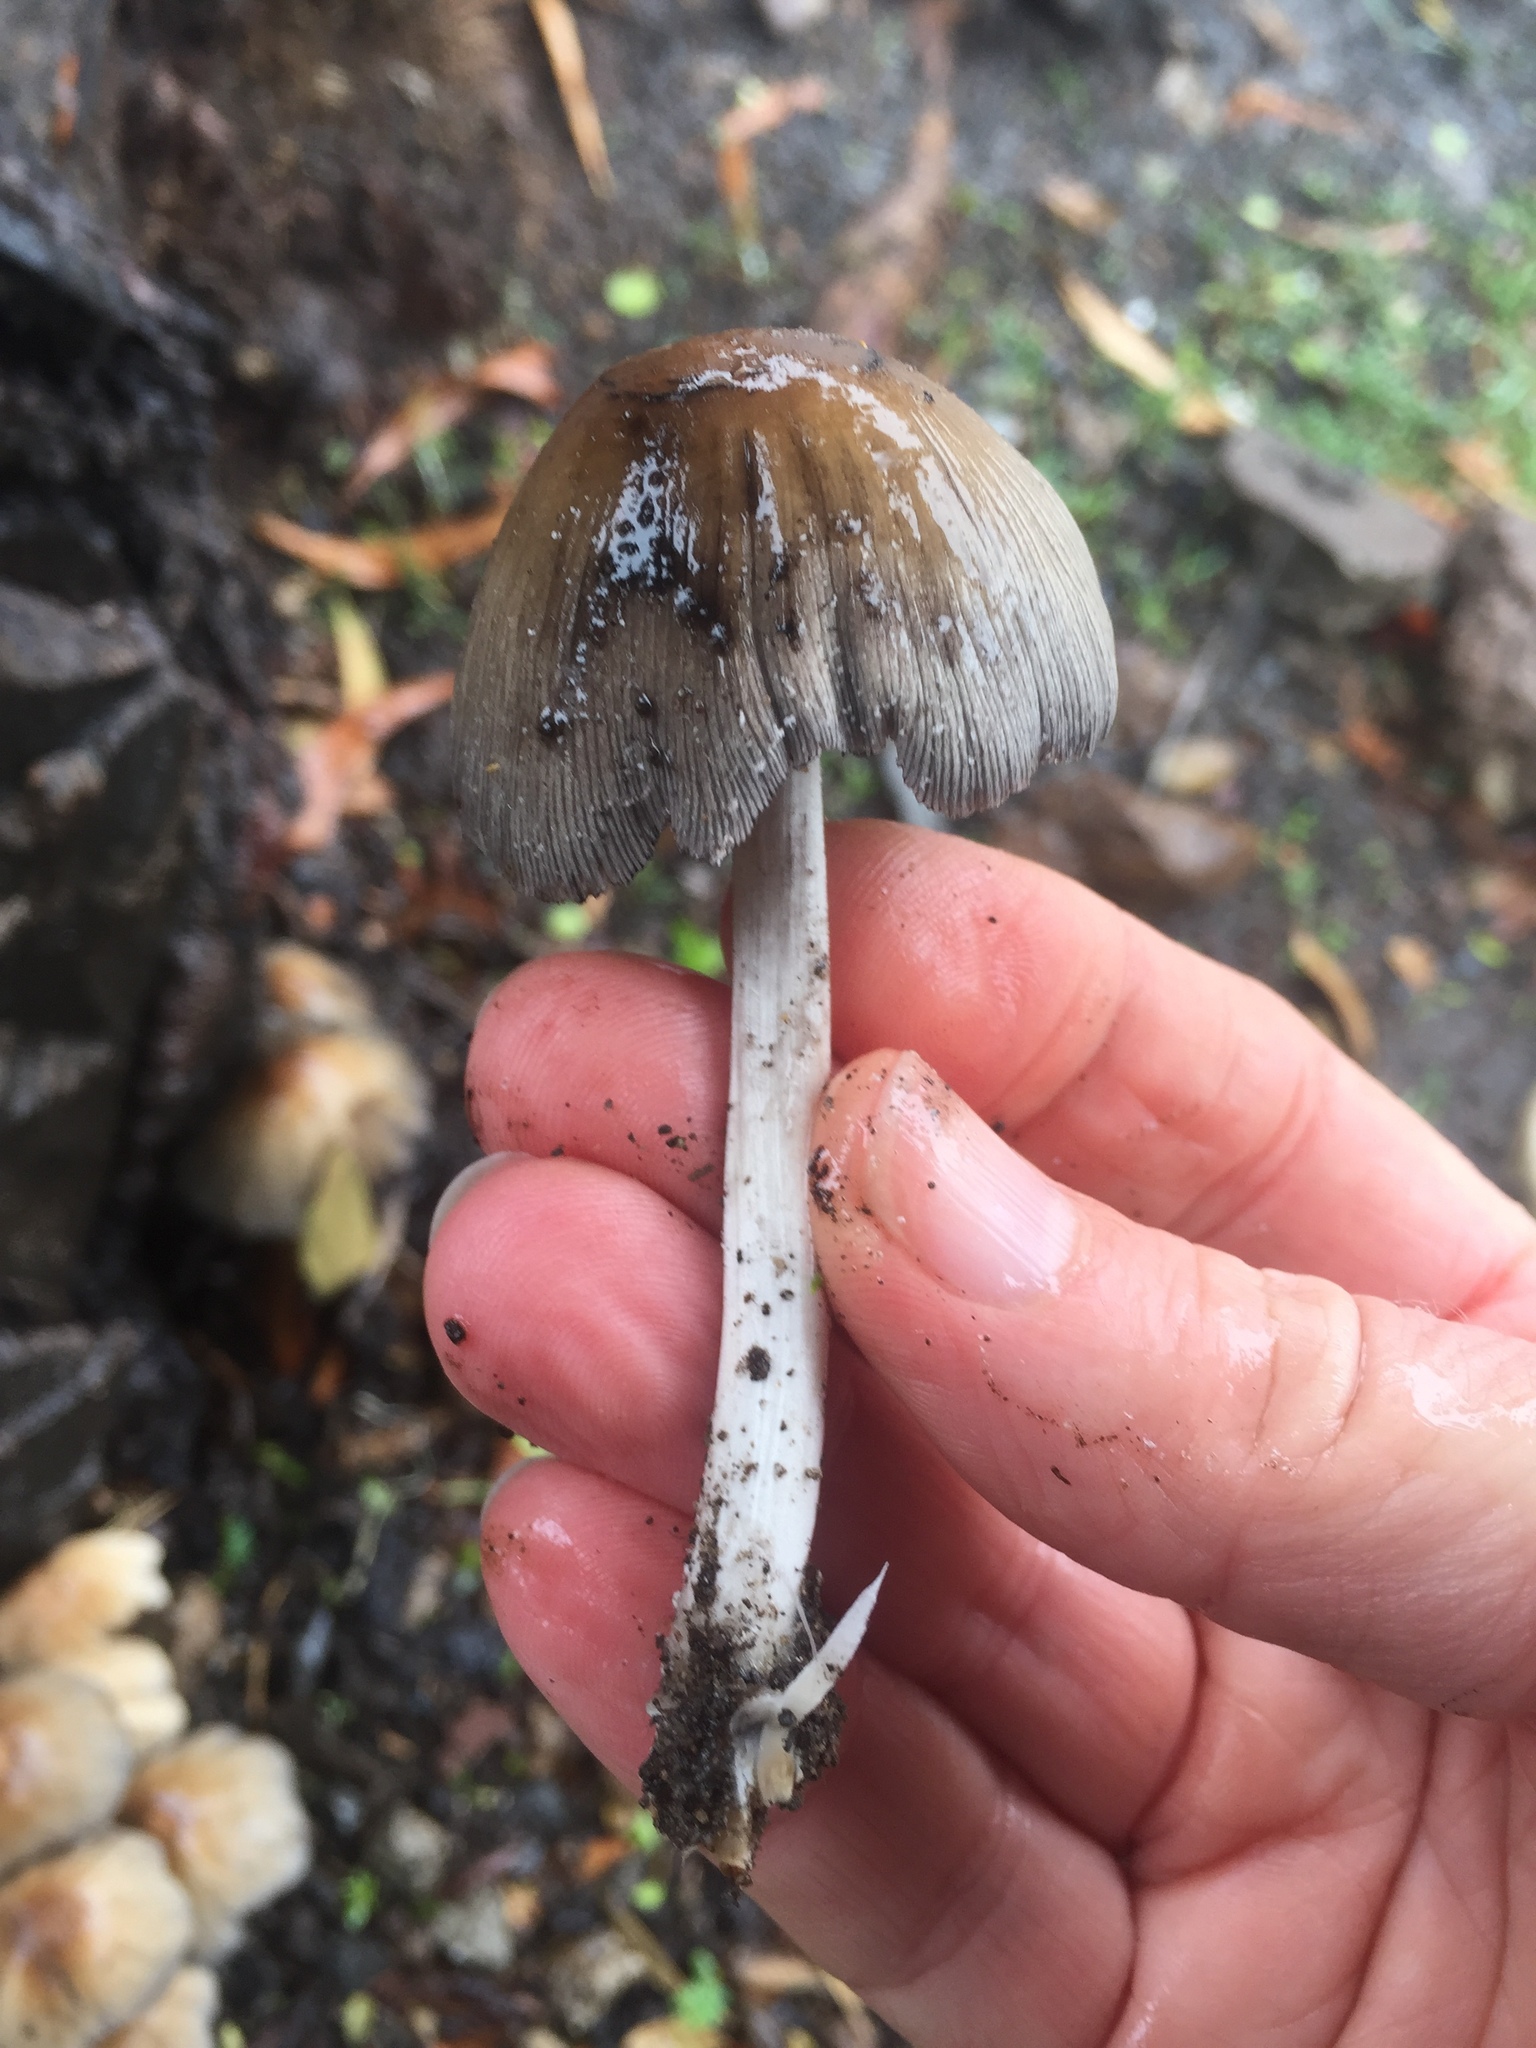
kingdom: Fungi
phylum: Basidiomycota
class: Agaricomycetes
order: Agaricales
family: Psathyrellaceae
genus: Coprinellus
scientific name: Coprinellus micaceus
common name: Glistening ink-cap
